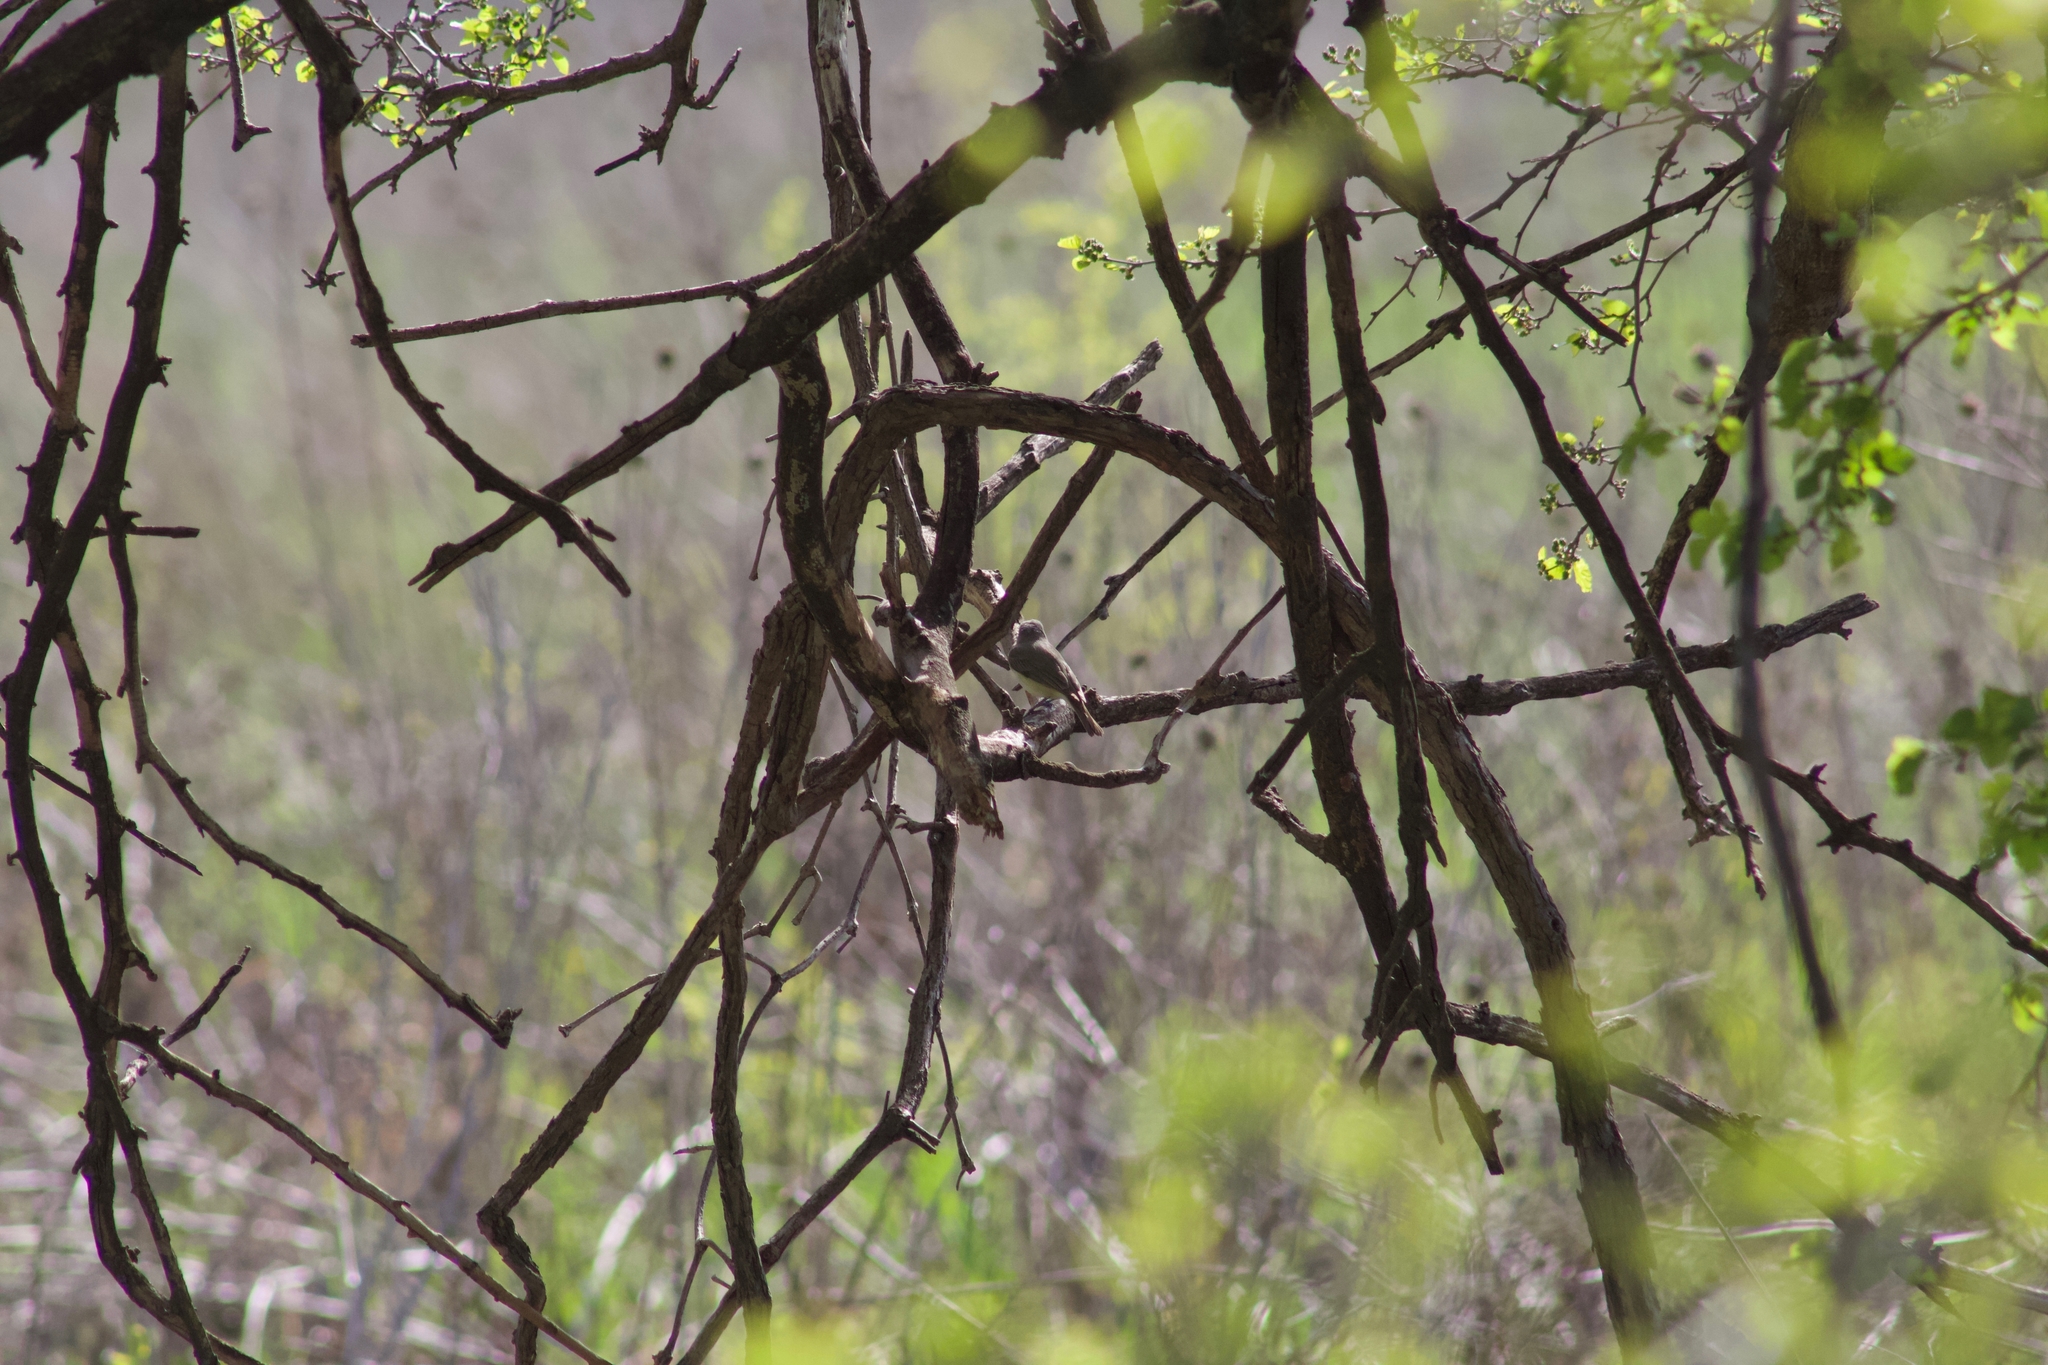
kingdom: Animalia
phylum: Chordata
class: Aves
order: Passeriformes
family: Vireonidae
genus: Vireo
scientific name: Vireo gilvus
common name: Warbling vireo
